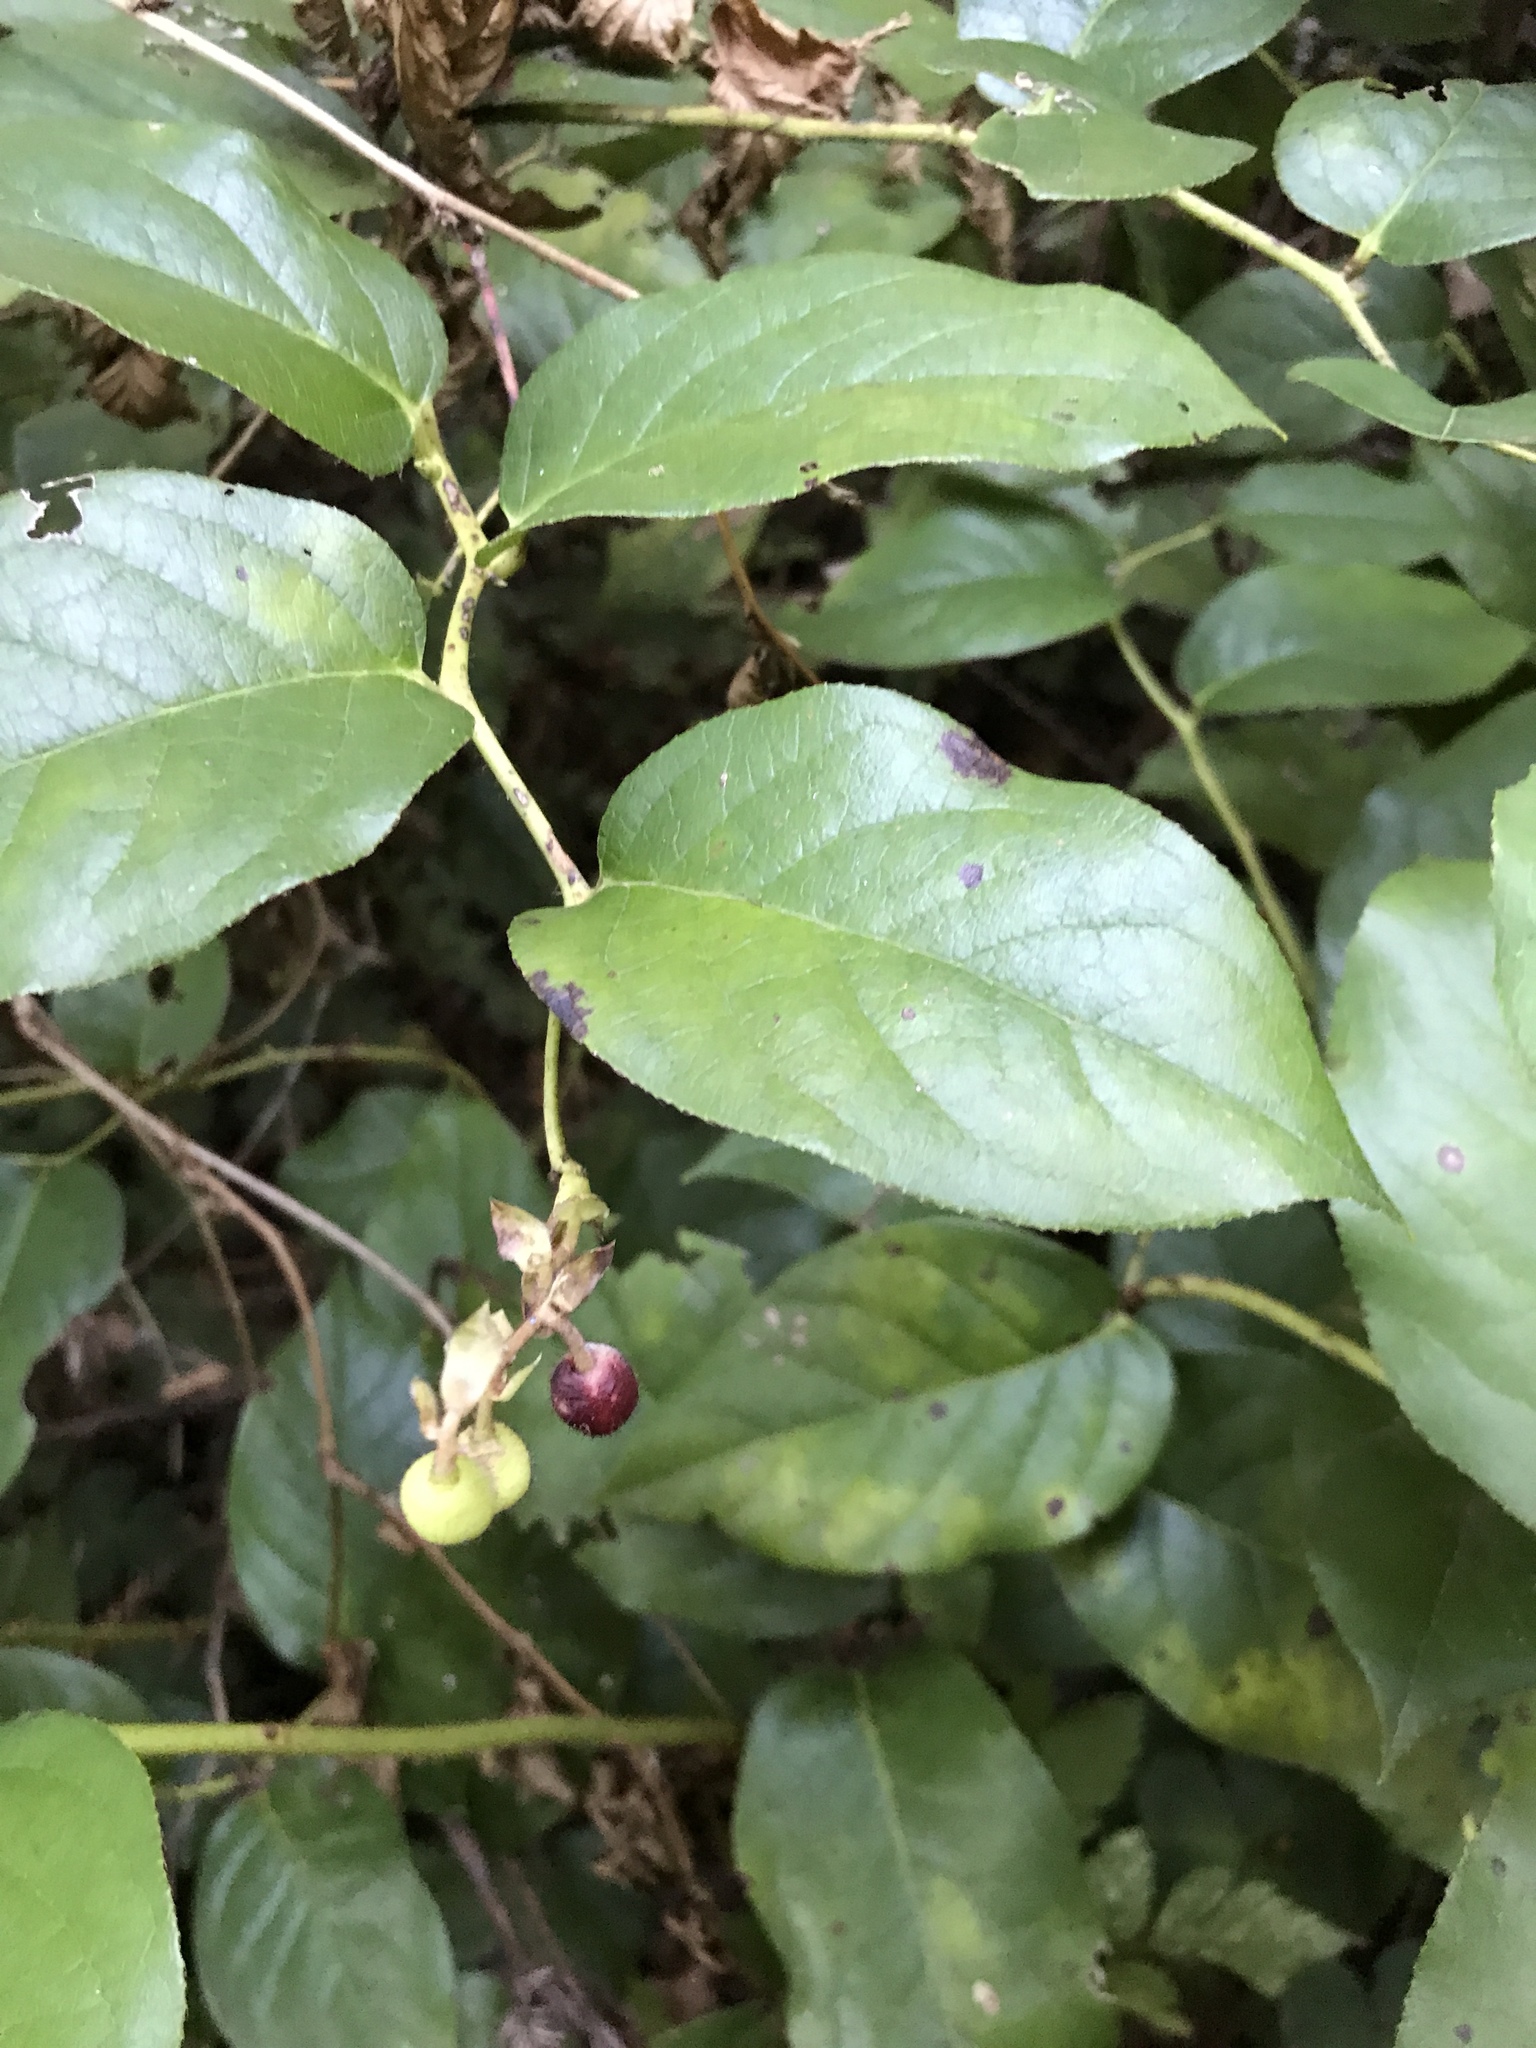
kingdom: Plantae
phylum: Tracheophyta
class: Magnoliopsida
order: Ericales
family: Ericaceae
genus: Gaultheria
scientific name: Gaultheria shallon
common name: Shallon
